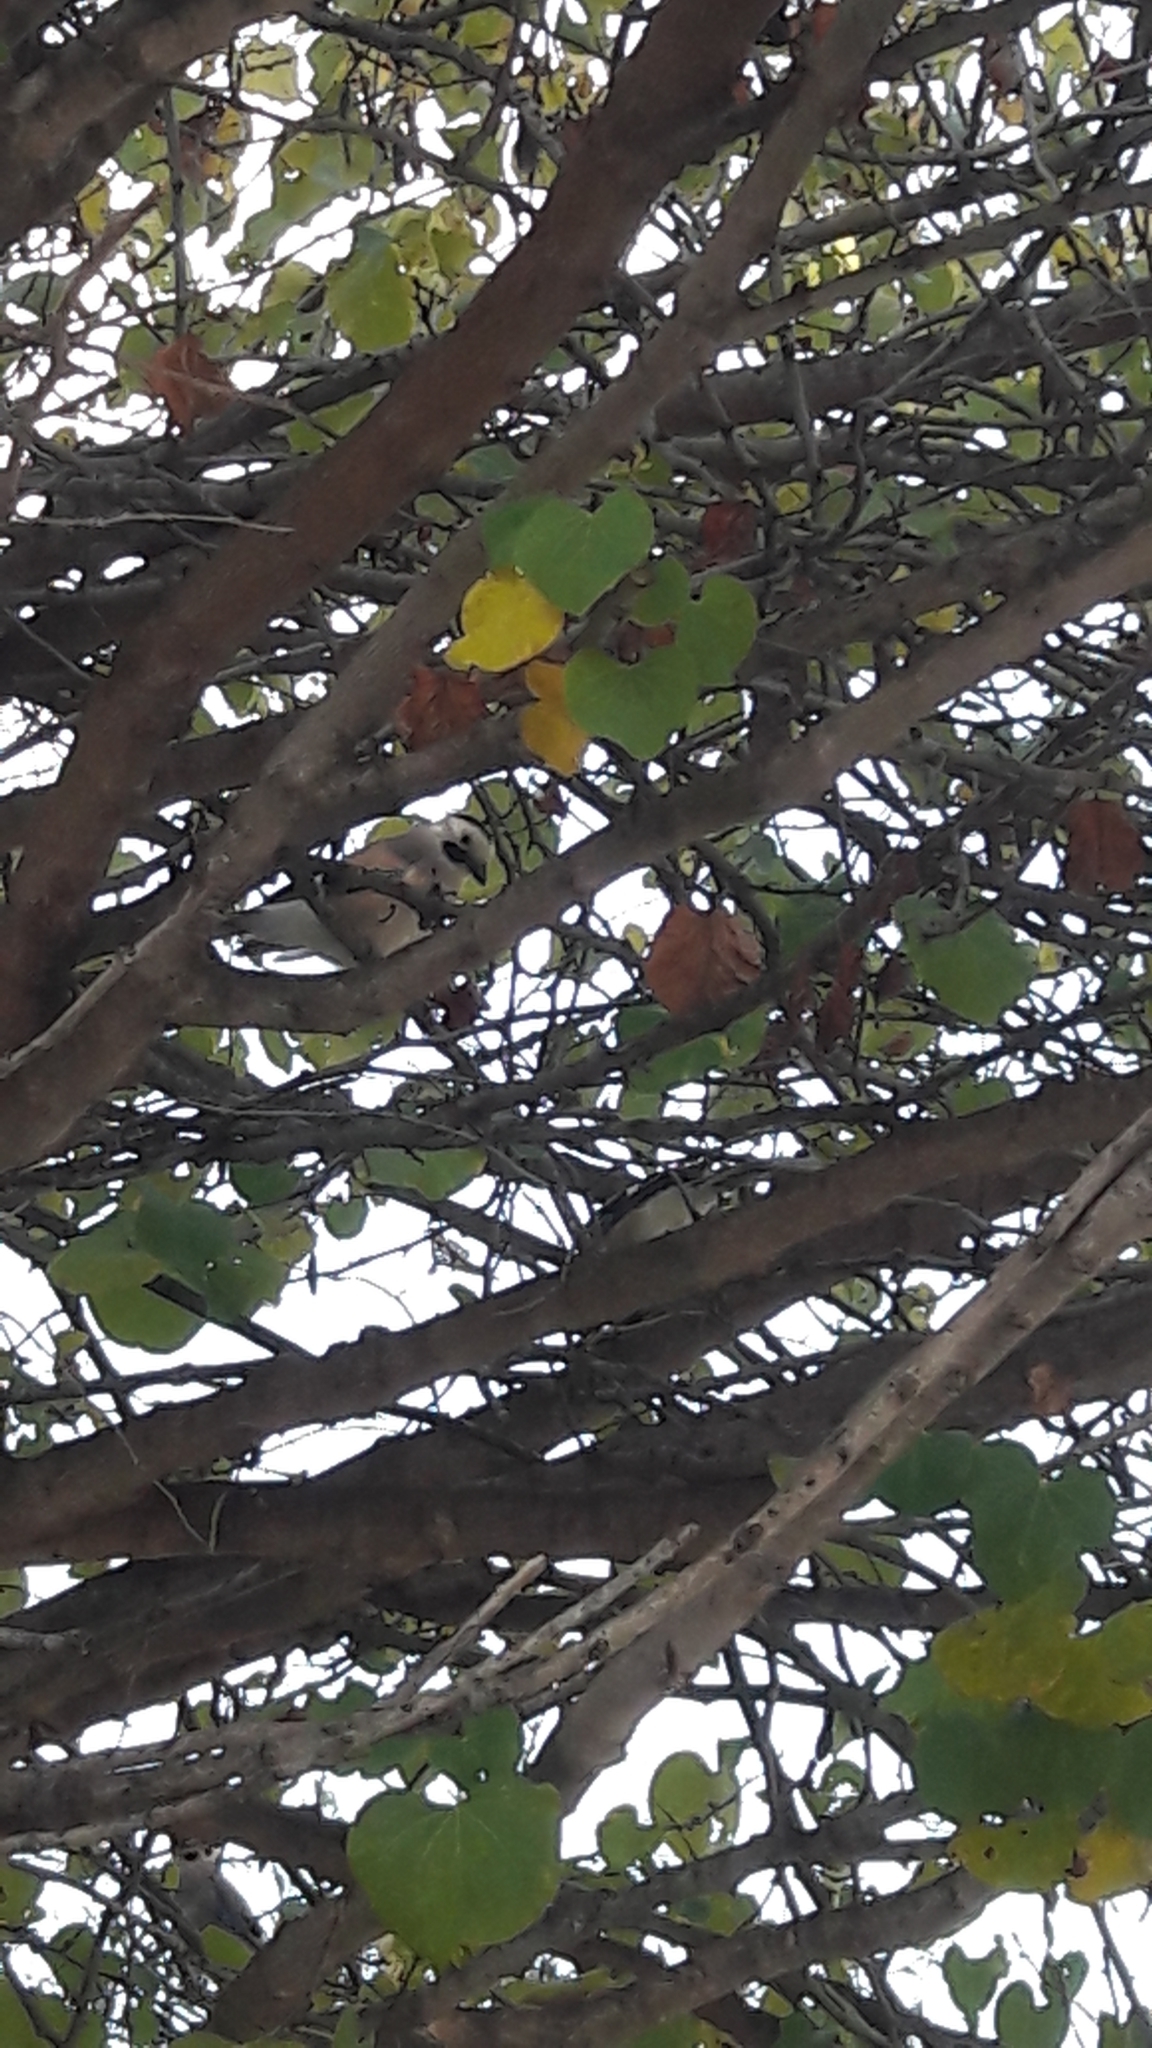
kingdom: Animalia
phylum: Chordata
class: Aves
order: Passeriformes
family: Corvidae
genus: Garrulus
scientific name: Garrulus glandarius
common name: Eurasian jay
